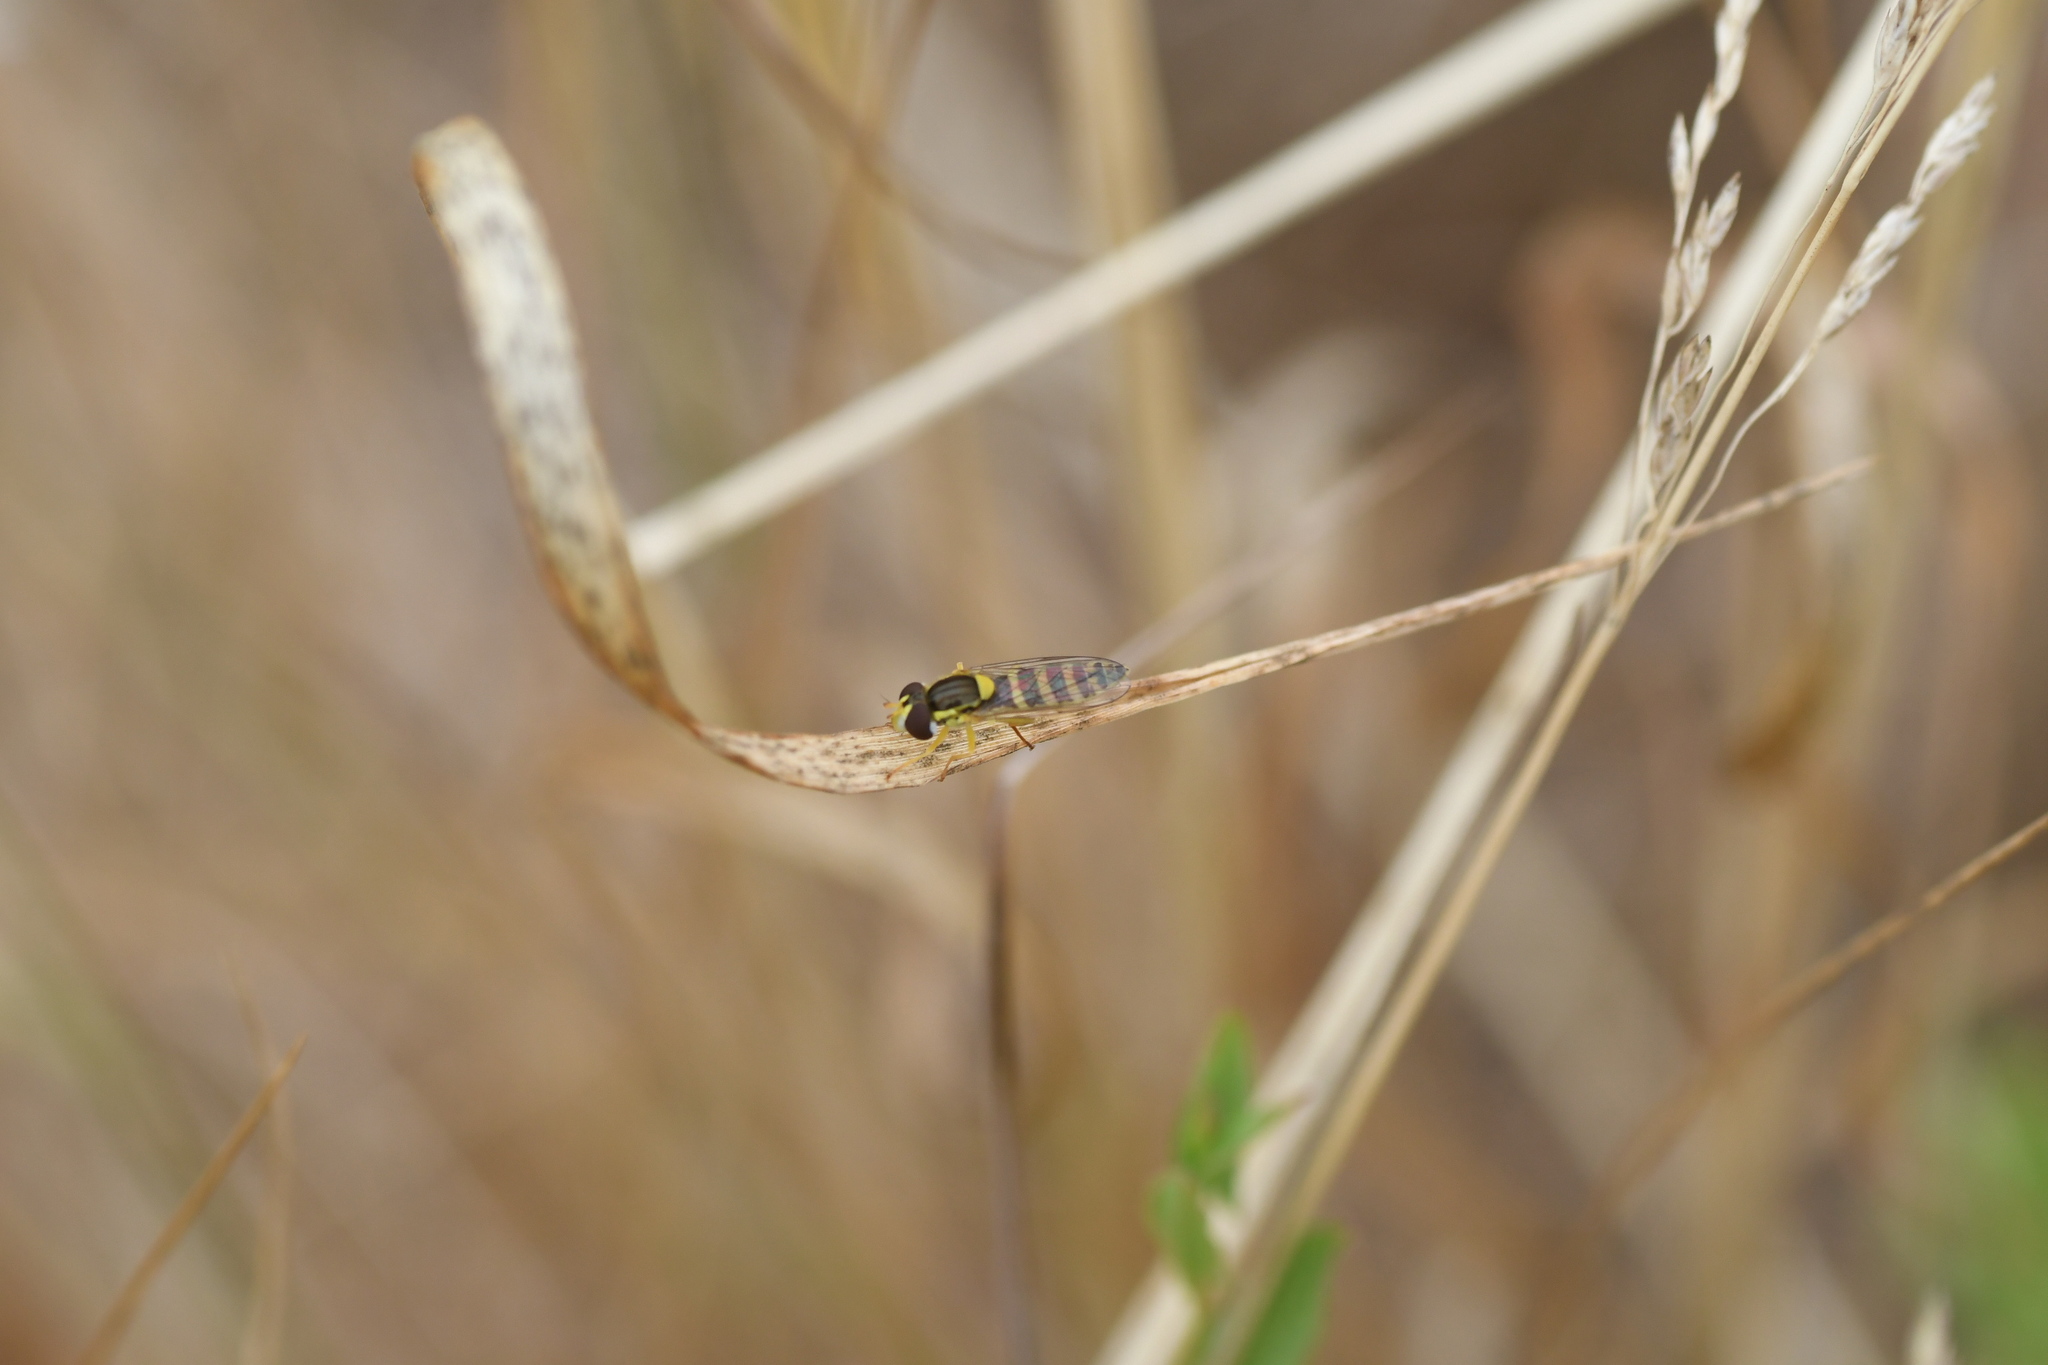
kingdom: Animalia
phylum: Arthropoda
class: Insecta
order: Diptera
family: Syrphidae
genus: Sphaerophoria
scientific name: Sphaerophoria
